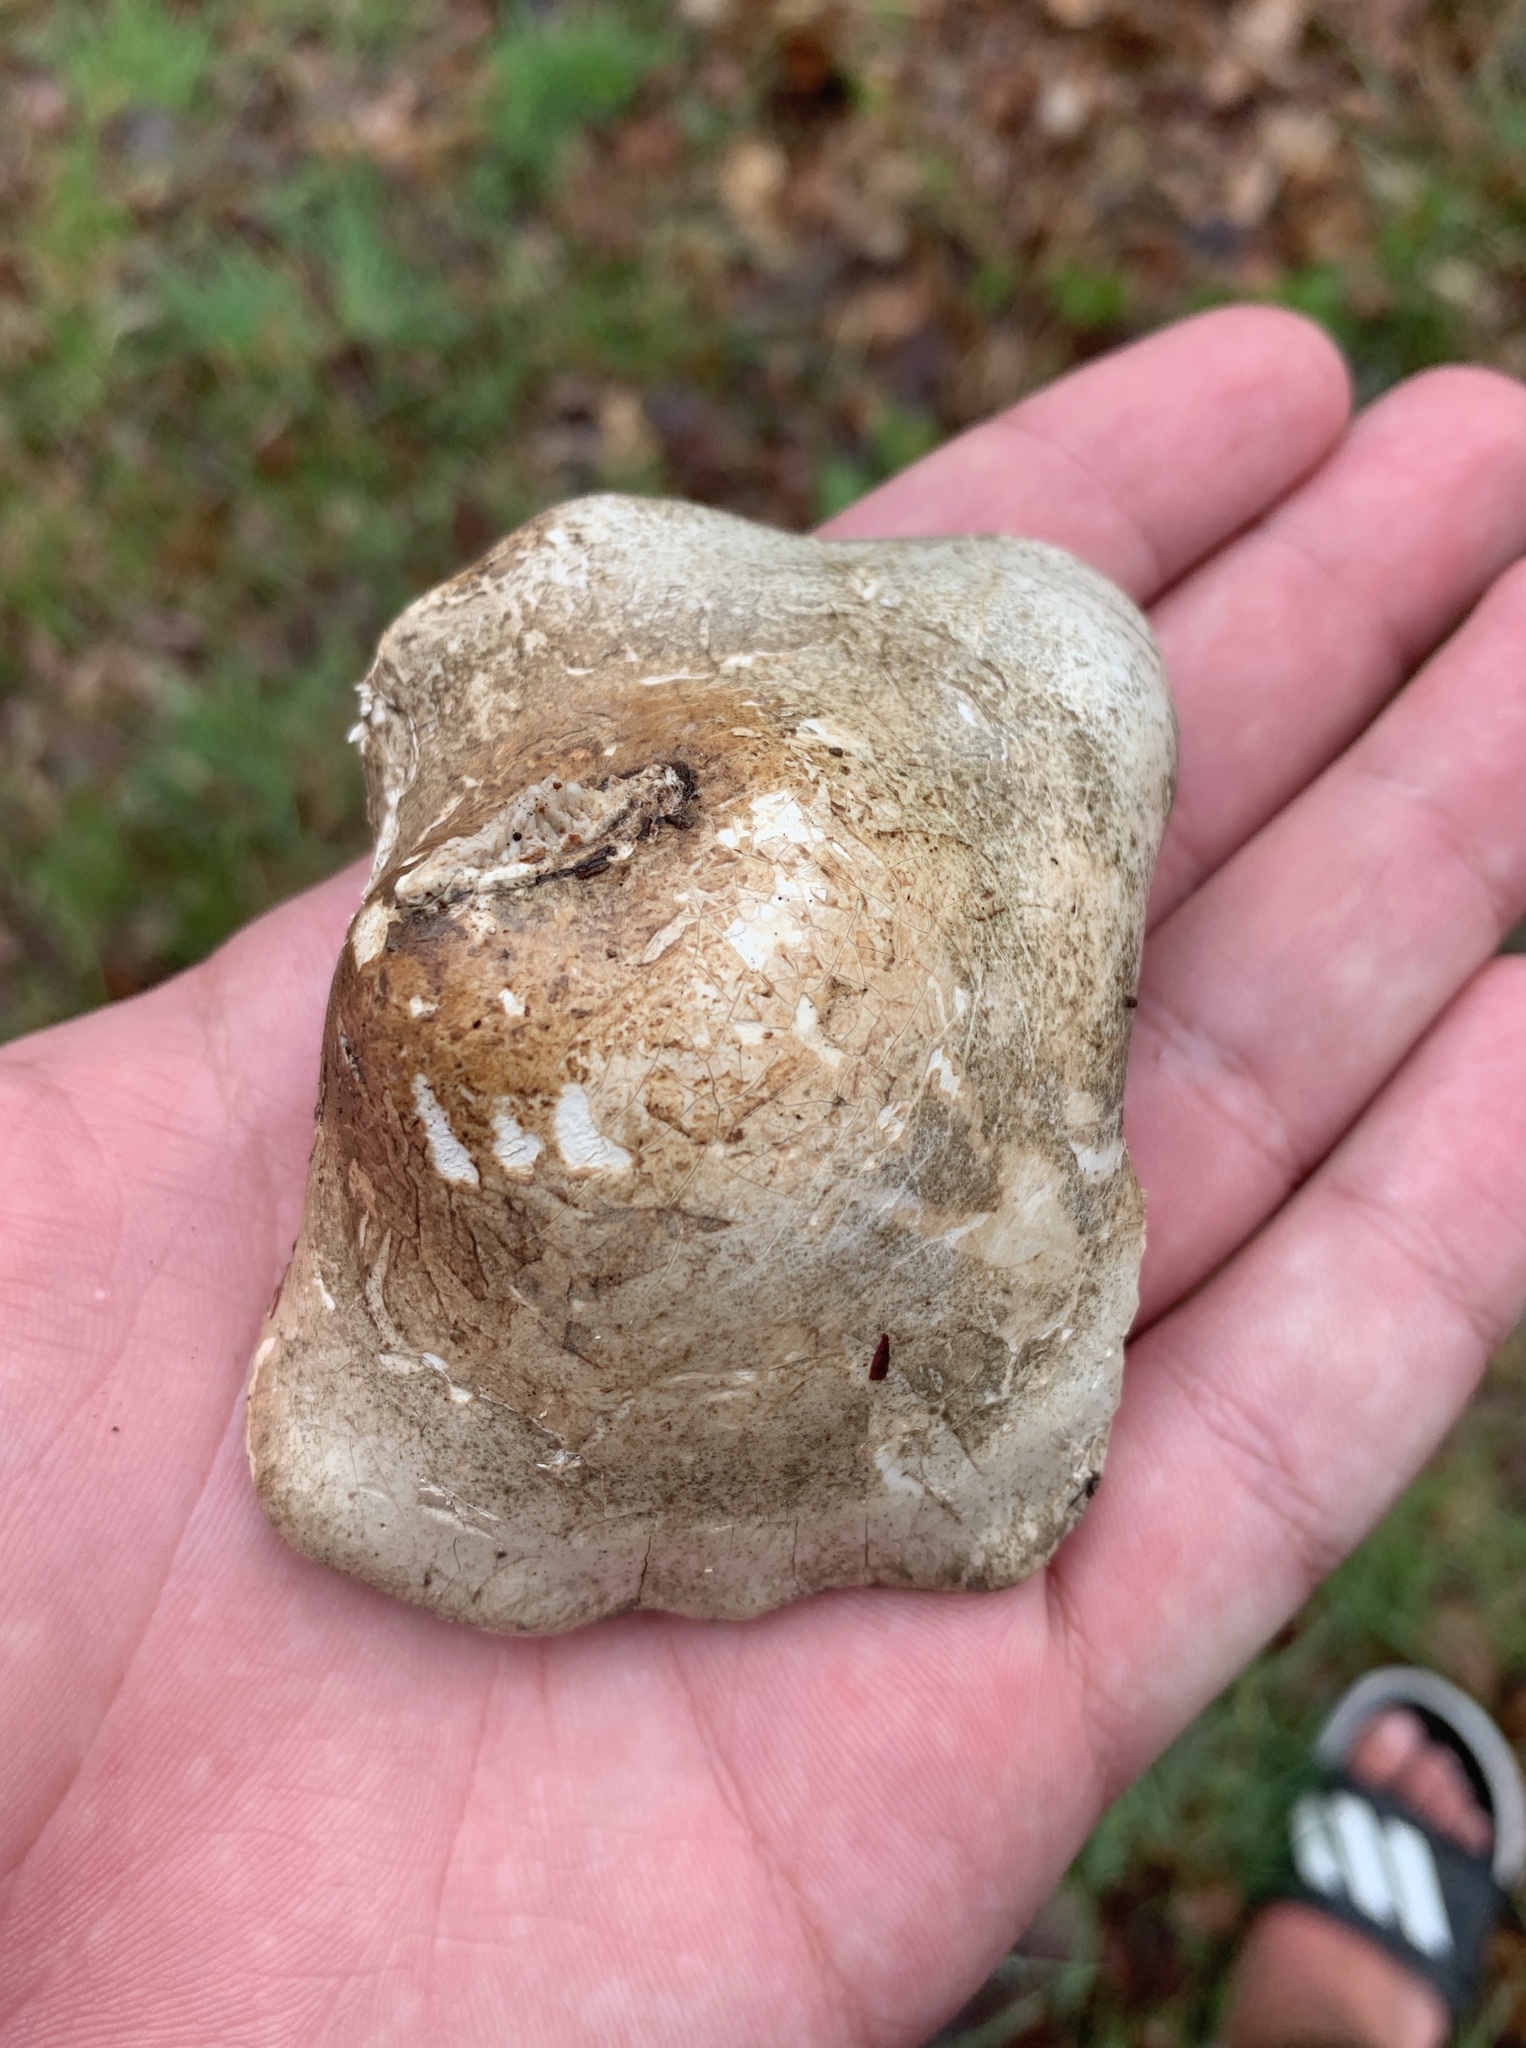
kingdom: Fungi
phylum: Basidiomycota
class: Agaricomycetes
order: Polyporales
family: Fomitopsidaceae
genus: Fomitopsis
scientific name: Fomitopsis betulina
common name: Birch polypore
